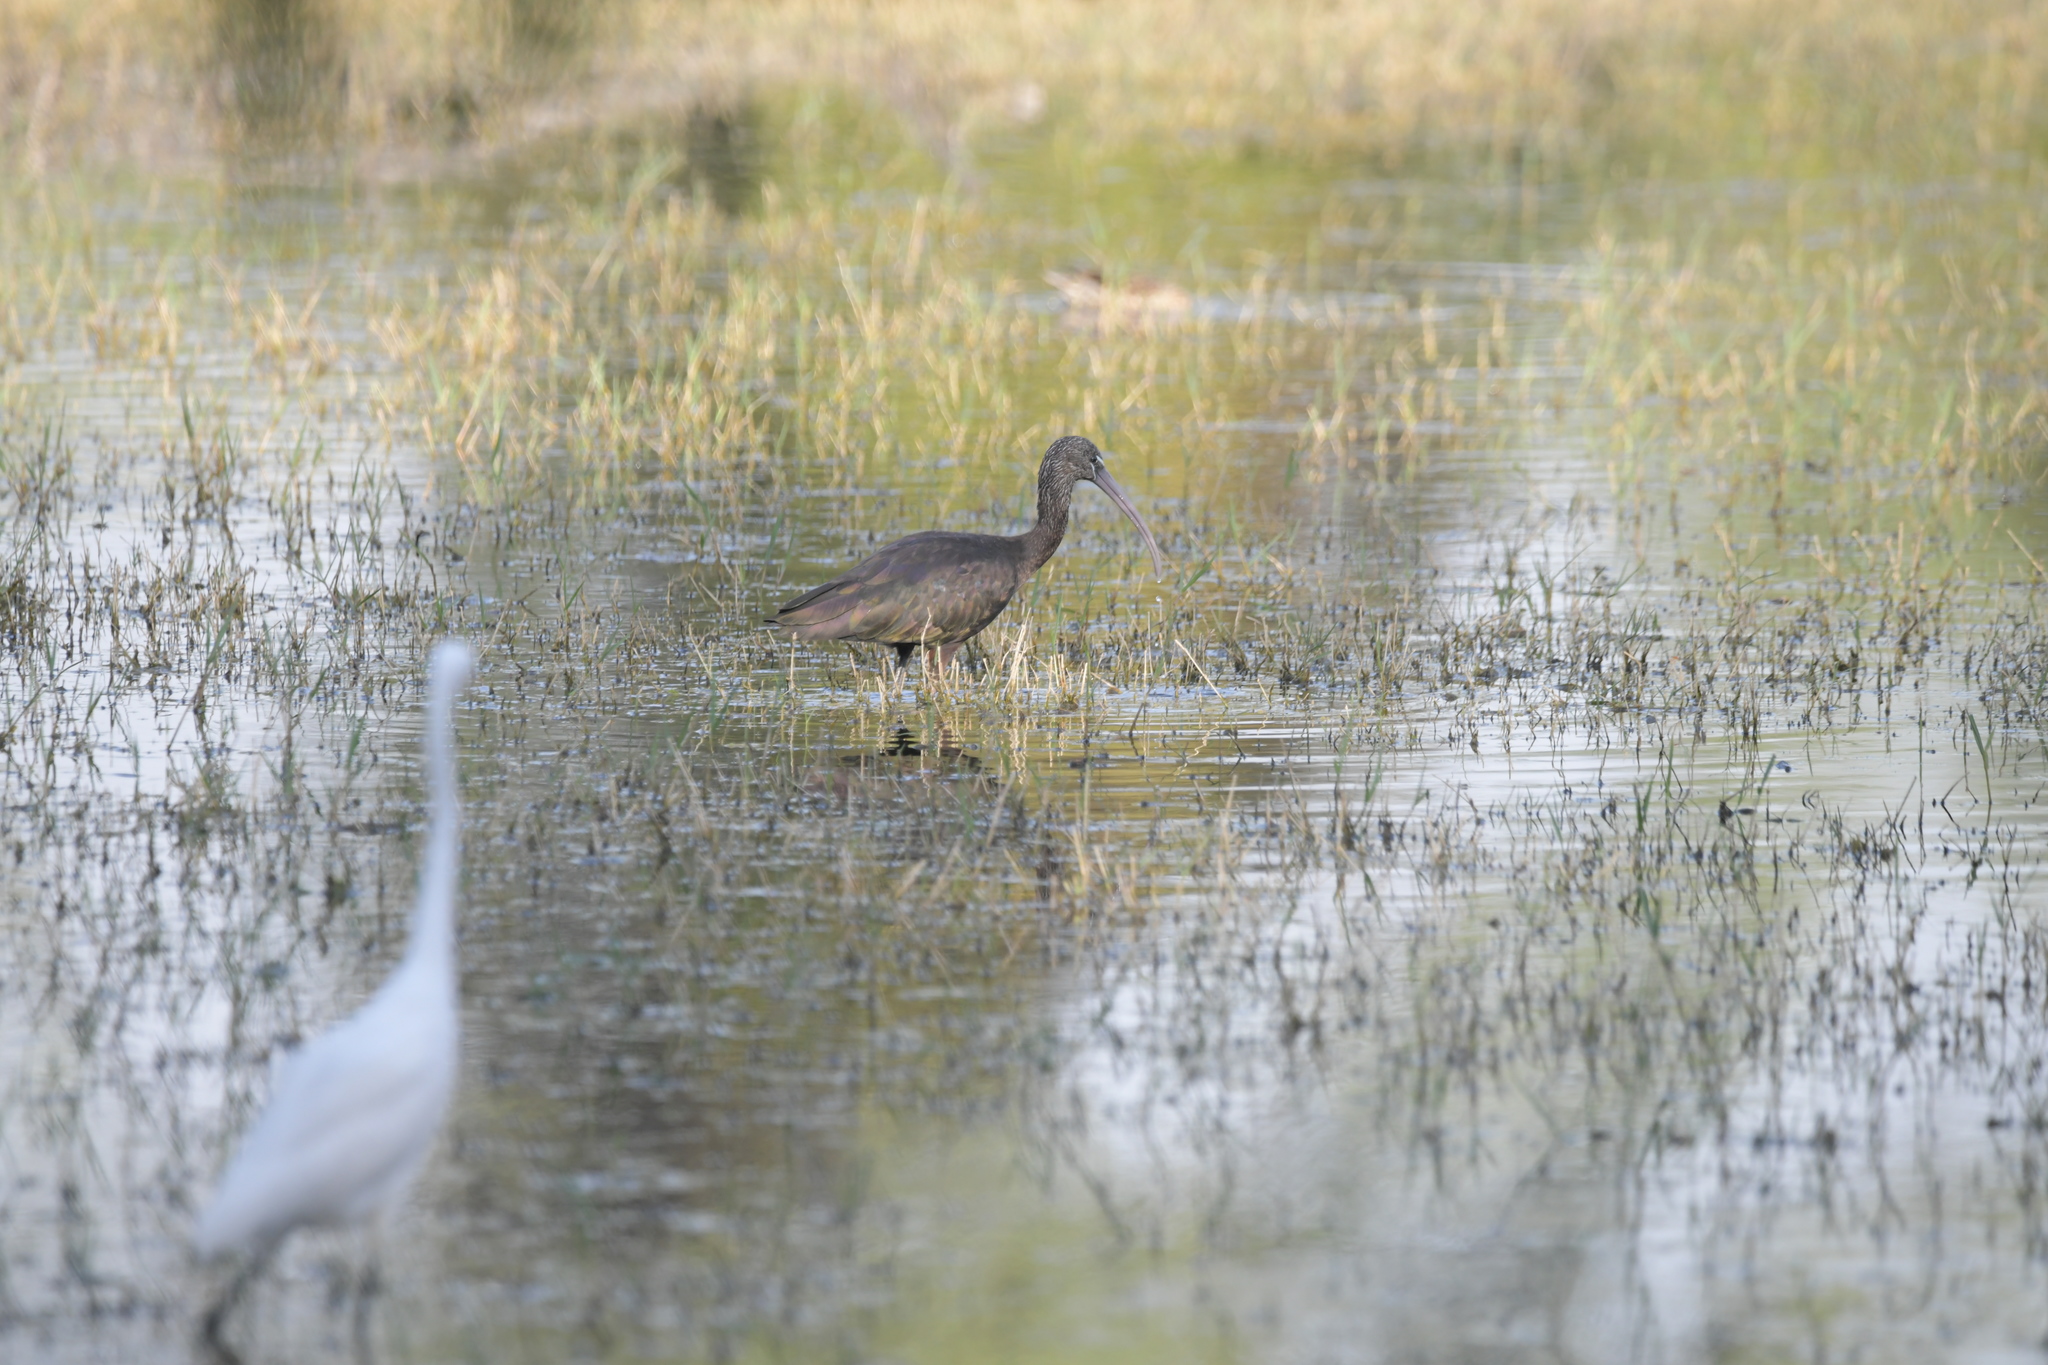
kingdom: Animalia
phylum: Chordata
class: Aves
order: Pelecaniformes
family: Threskiornithidae
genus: Plegadis
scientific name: Plegadis falcinellus
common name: Glossy ibis
